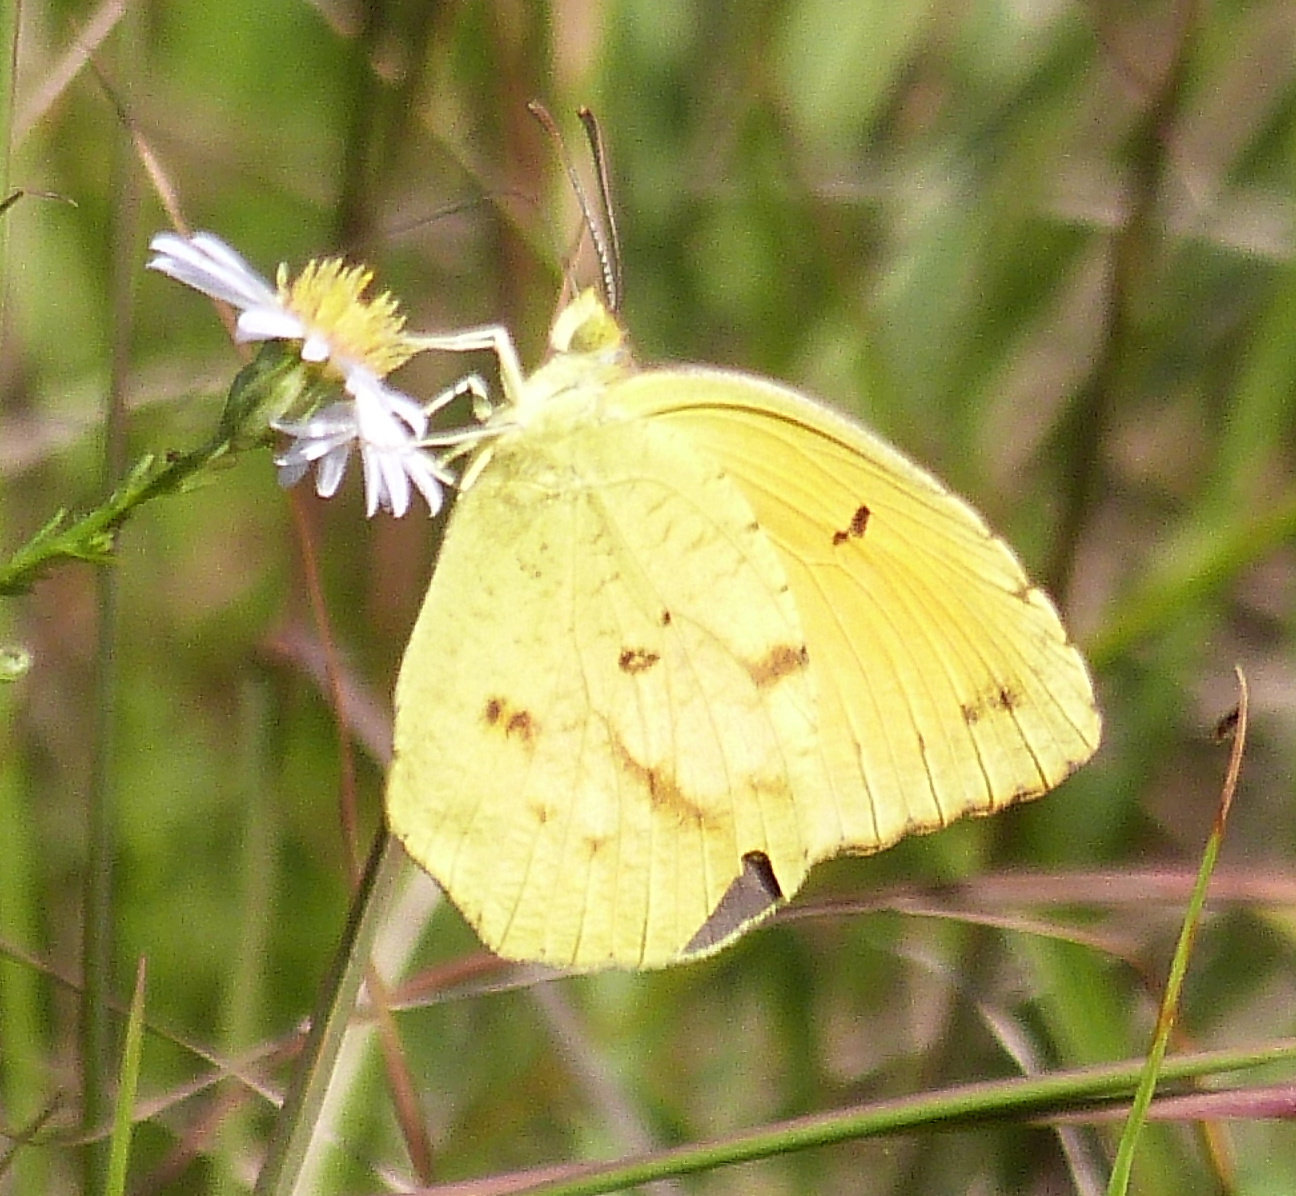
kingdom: Animalia
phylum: Arthropoda
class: Insecta
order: Lepidoptera
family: Pieridae
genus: Abaeis
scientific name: Abaeis nicippe
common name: Sleepy orange
